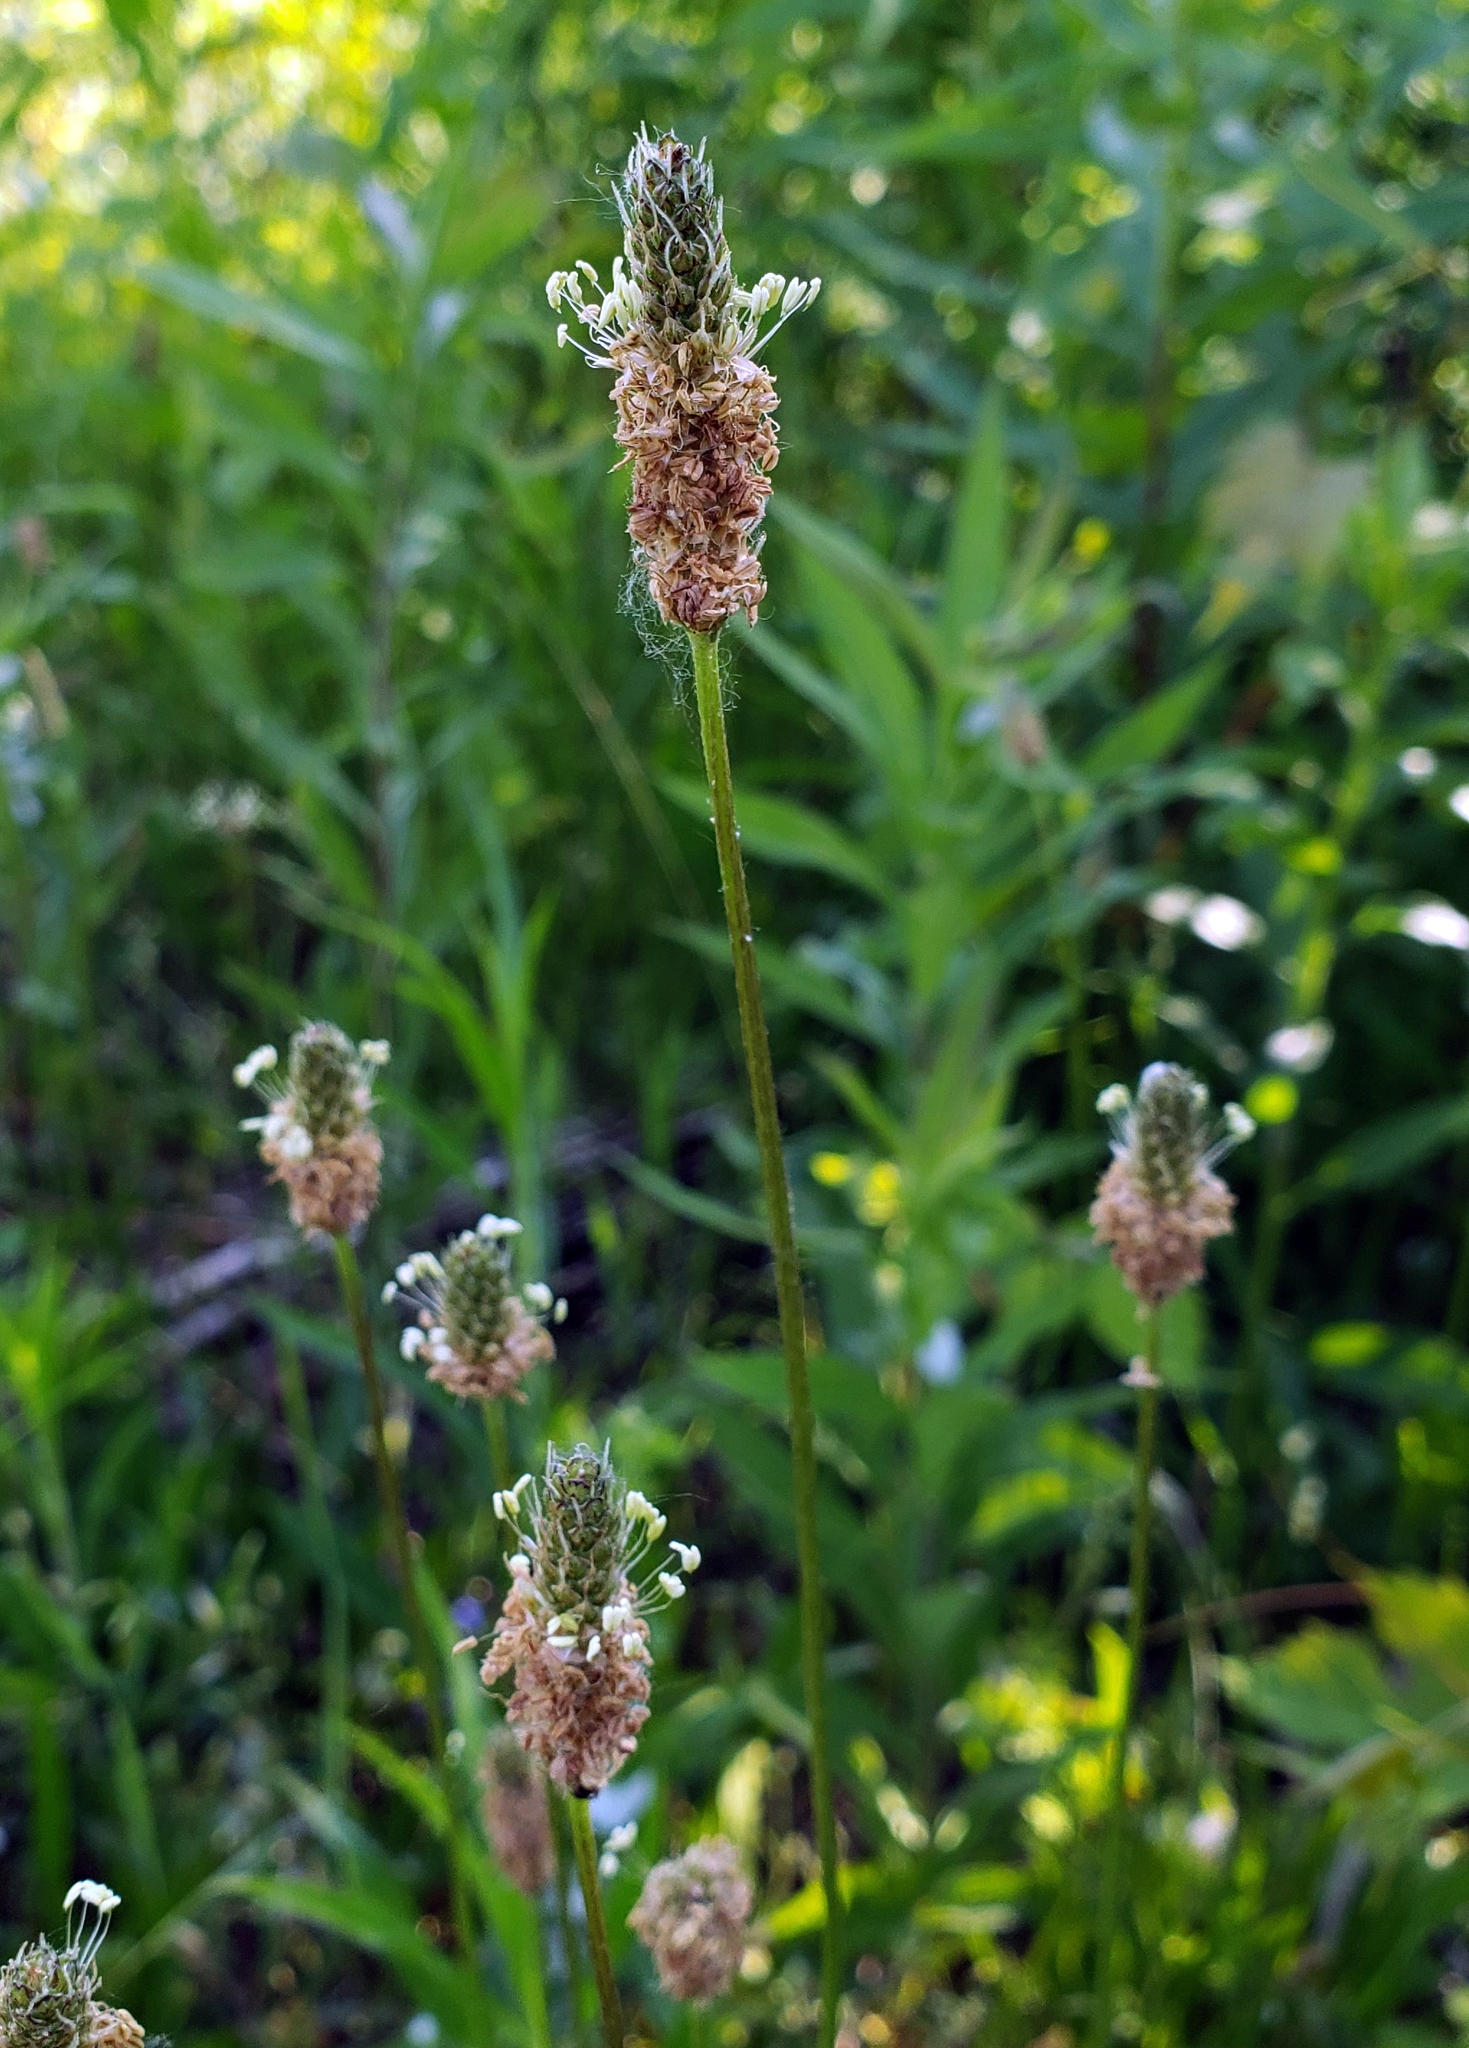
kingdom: Plantae
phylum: Tracheophyta
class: Magnoliopsida
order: Lamiales
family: Plantaginaceae
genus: Plantago
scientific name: Plantago lanceolata
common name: Ribwort plantain
